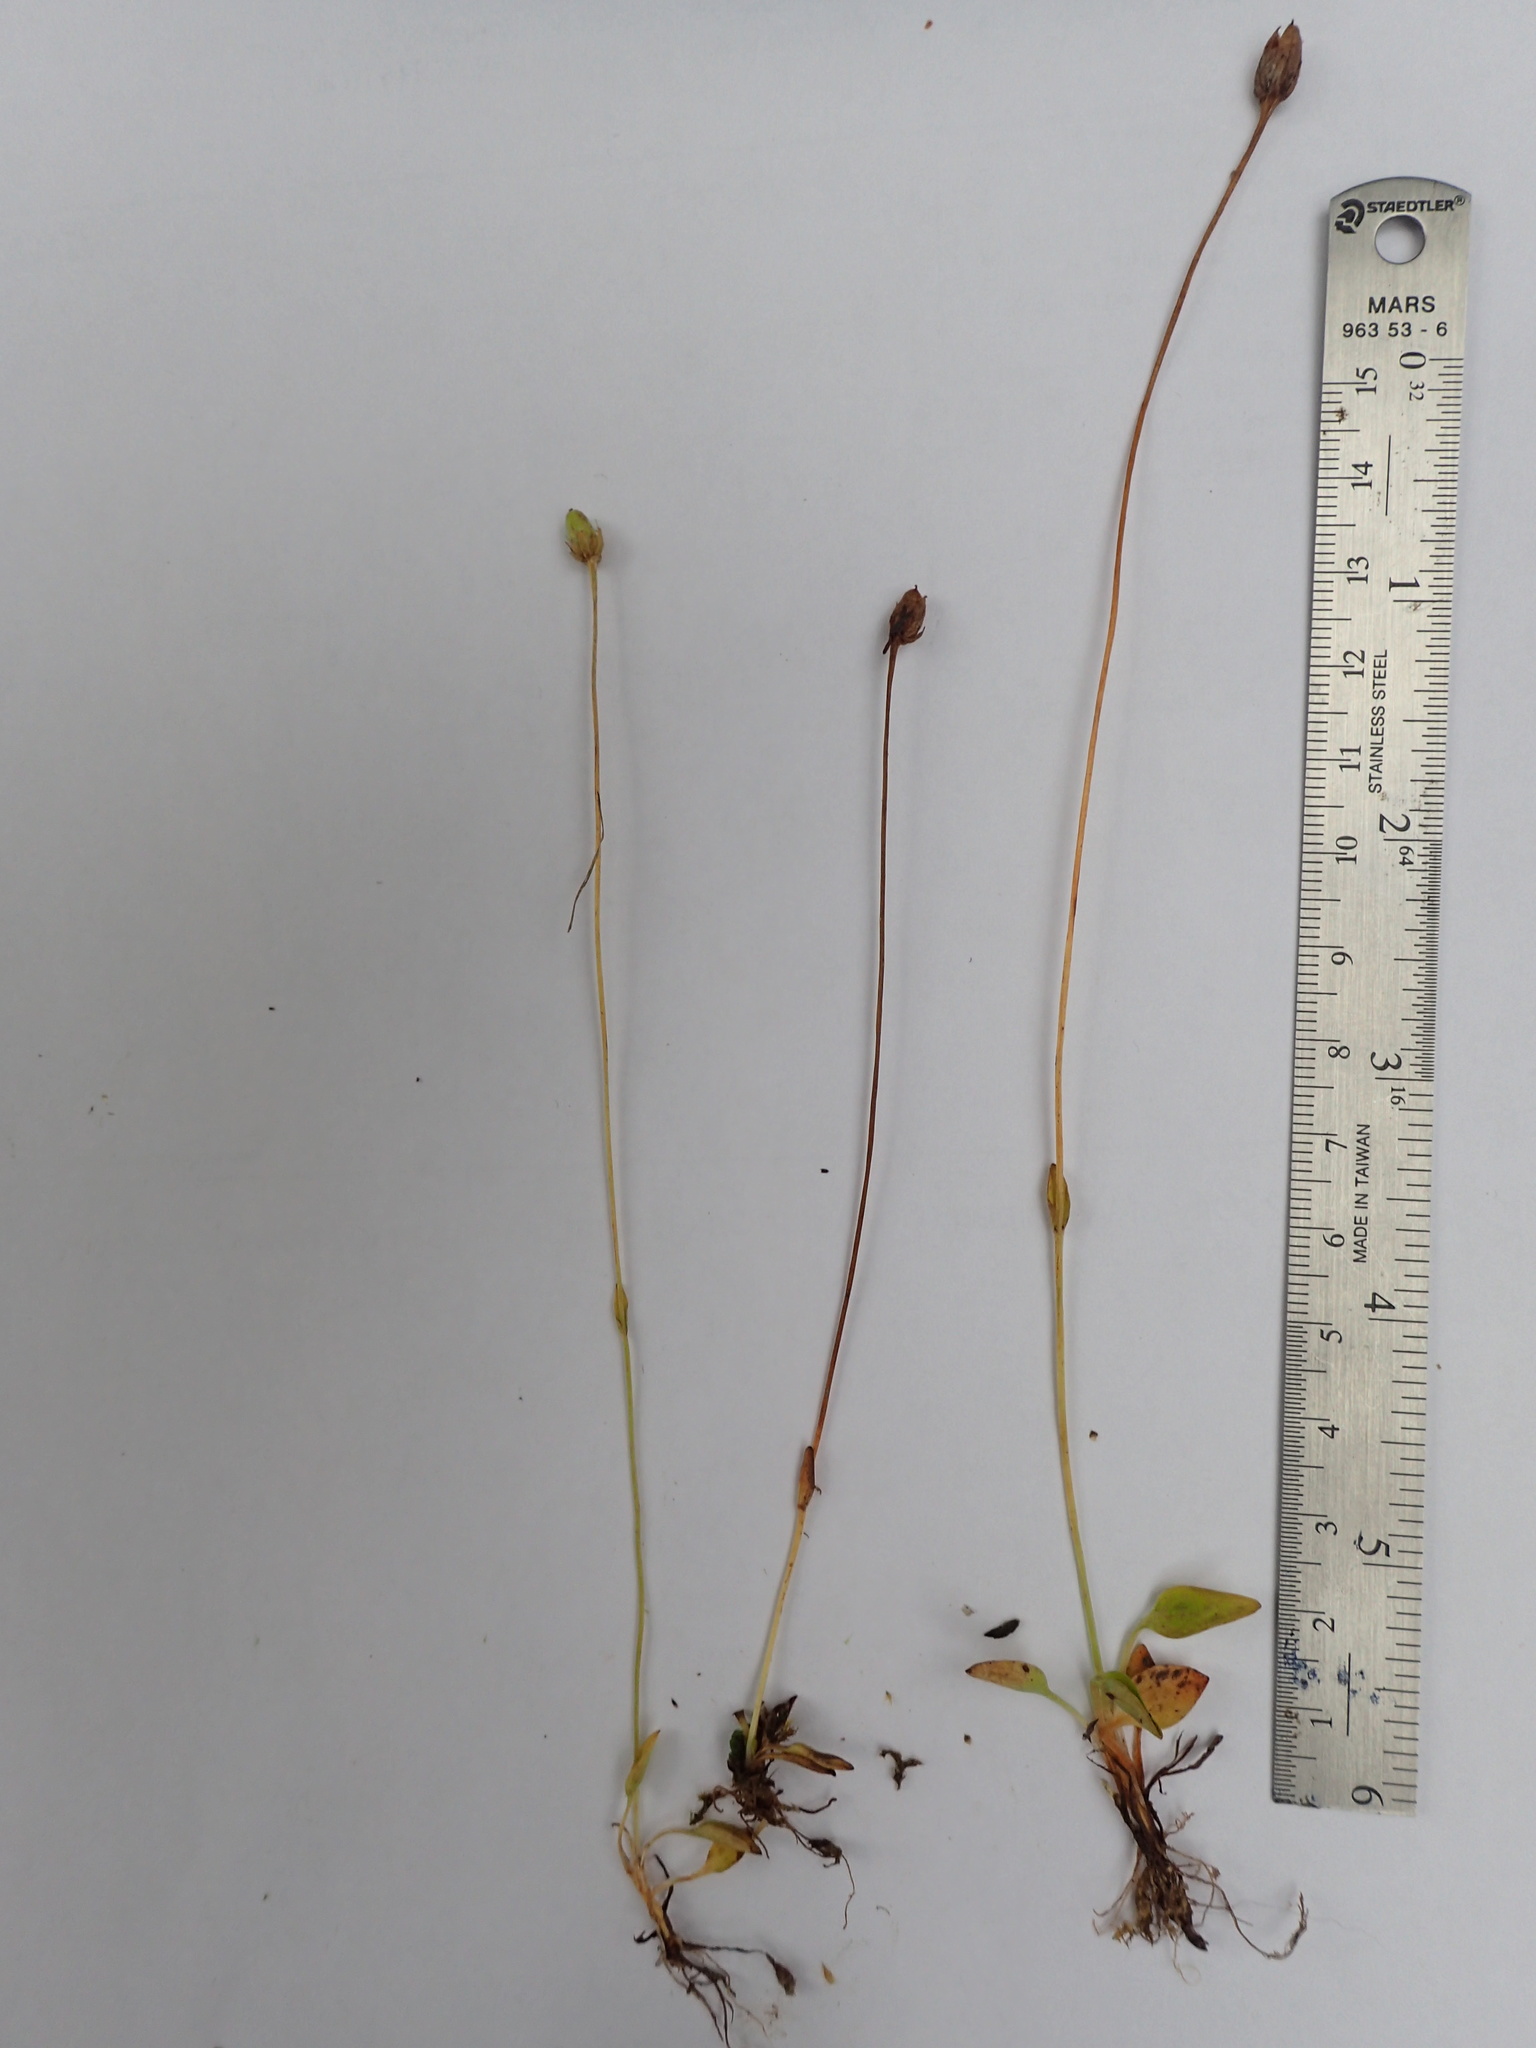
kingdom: Plantae
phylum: Tracheophyta
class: Magnoliopsida
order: Celastrales
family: Parnassiaceae
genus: Parnassia
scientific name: Parnassia parviflora
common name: Small-flowered grass-of-parnassus
